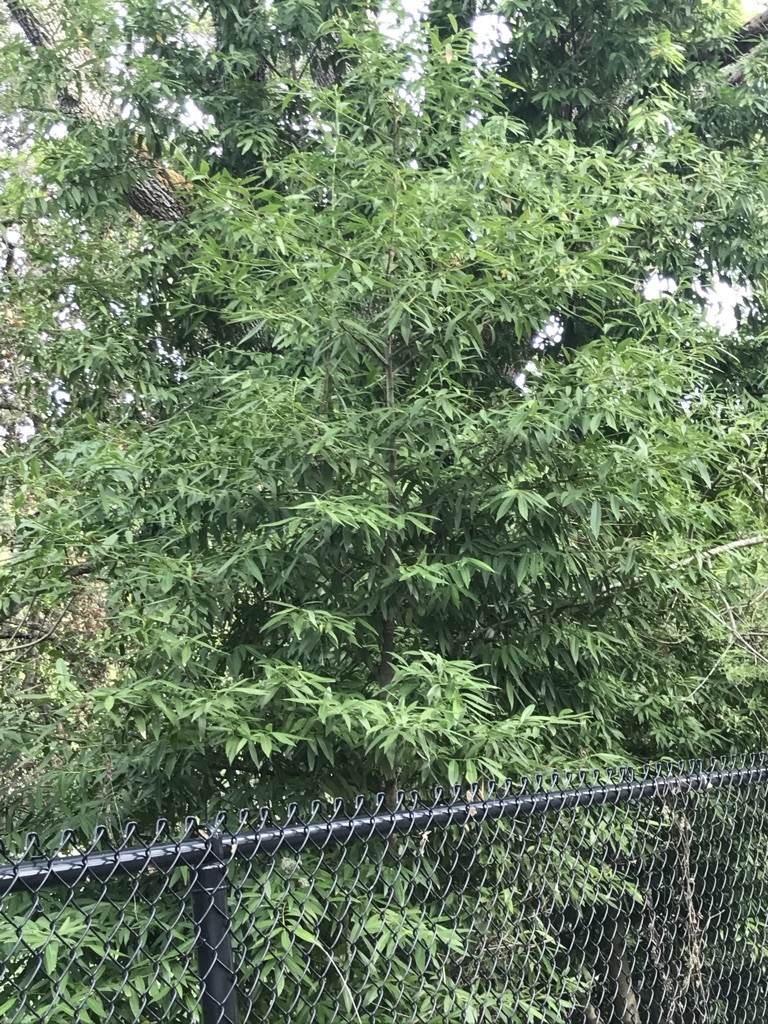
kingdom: Plantae
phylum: Tracheophyta
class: Magnoliopsida
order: Laurales
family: Lauraceae
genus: Umbellularia
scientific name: Umbellularia californica
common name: California bay
